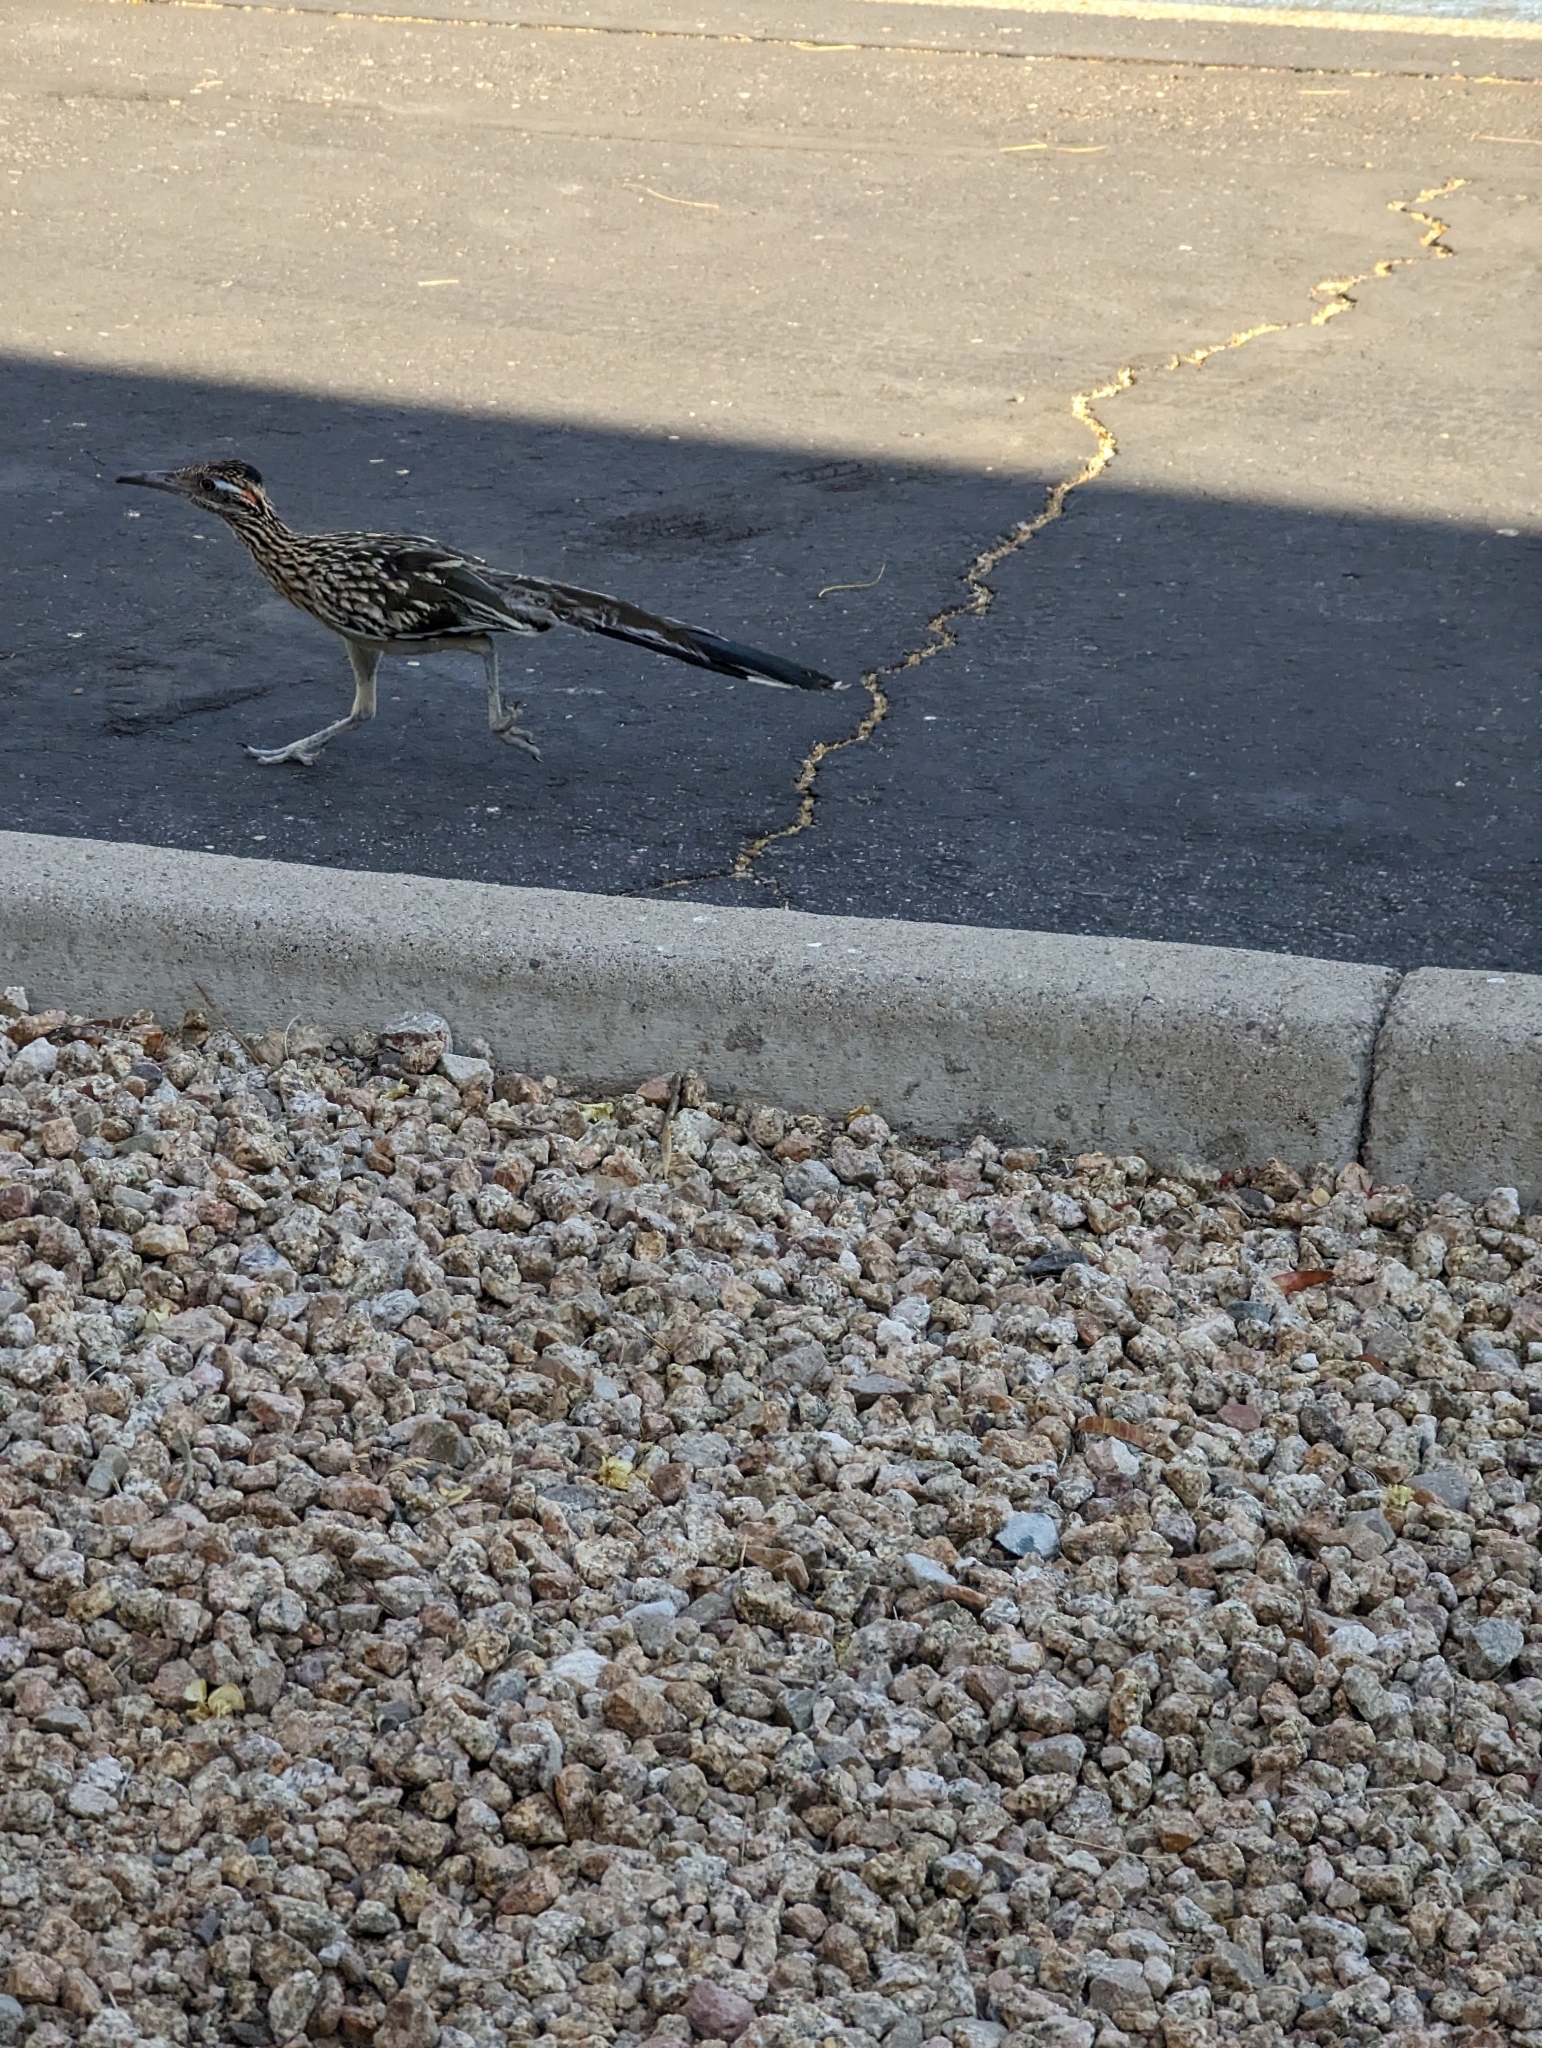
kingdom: Animalia
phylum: Chordata
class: Aves
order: Cuculiformes
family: Cuculidae
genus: Geococcyx
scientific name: Geococcyx californianus
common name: Greater roadrunner
